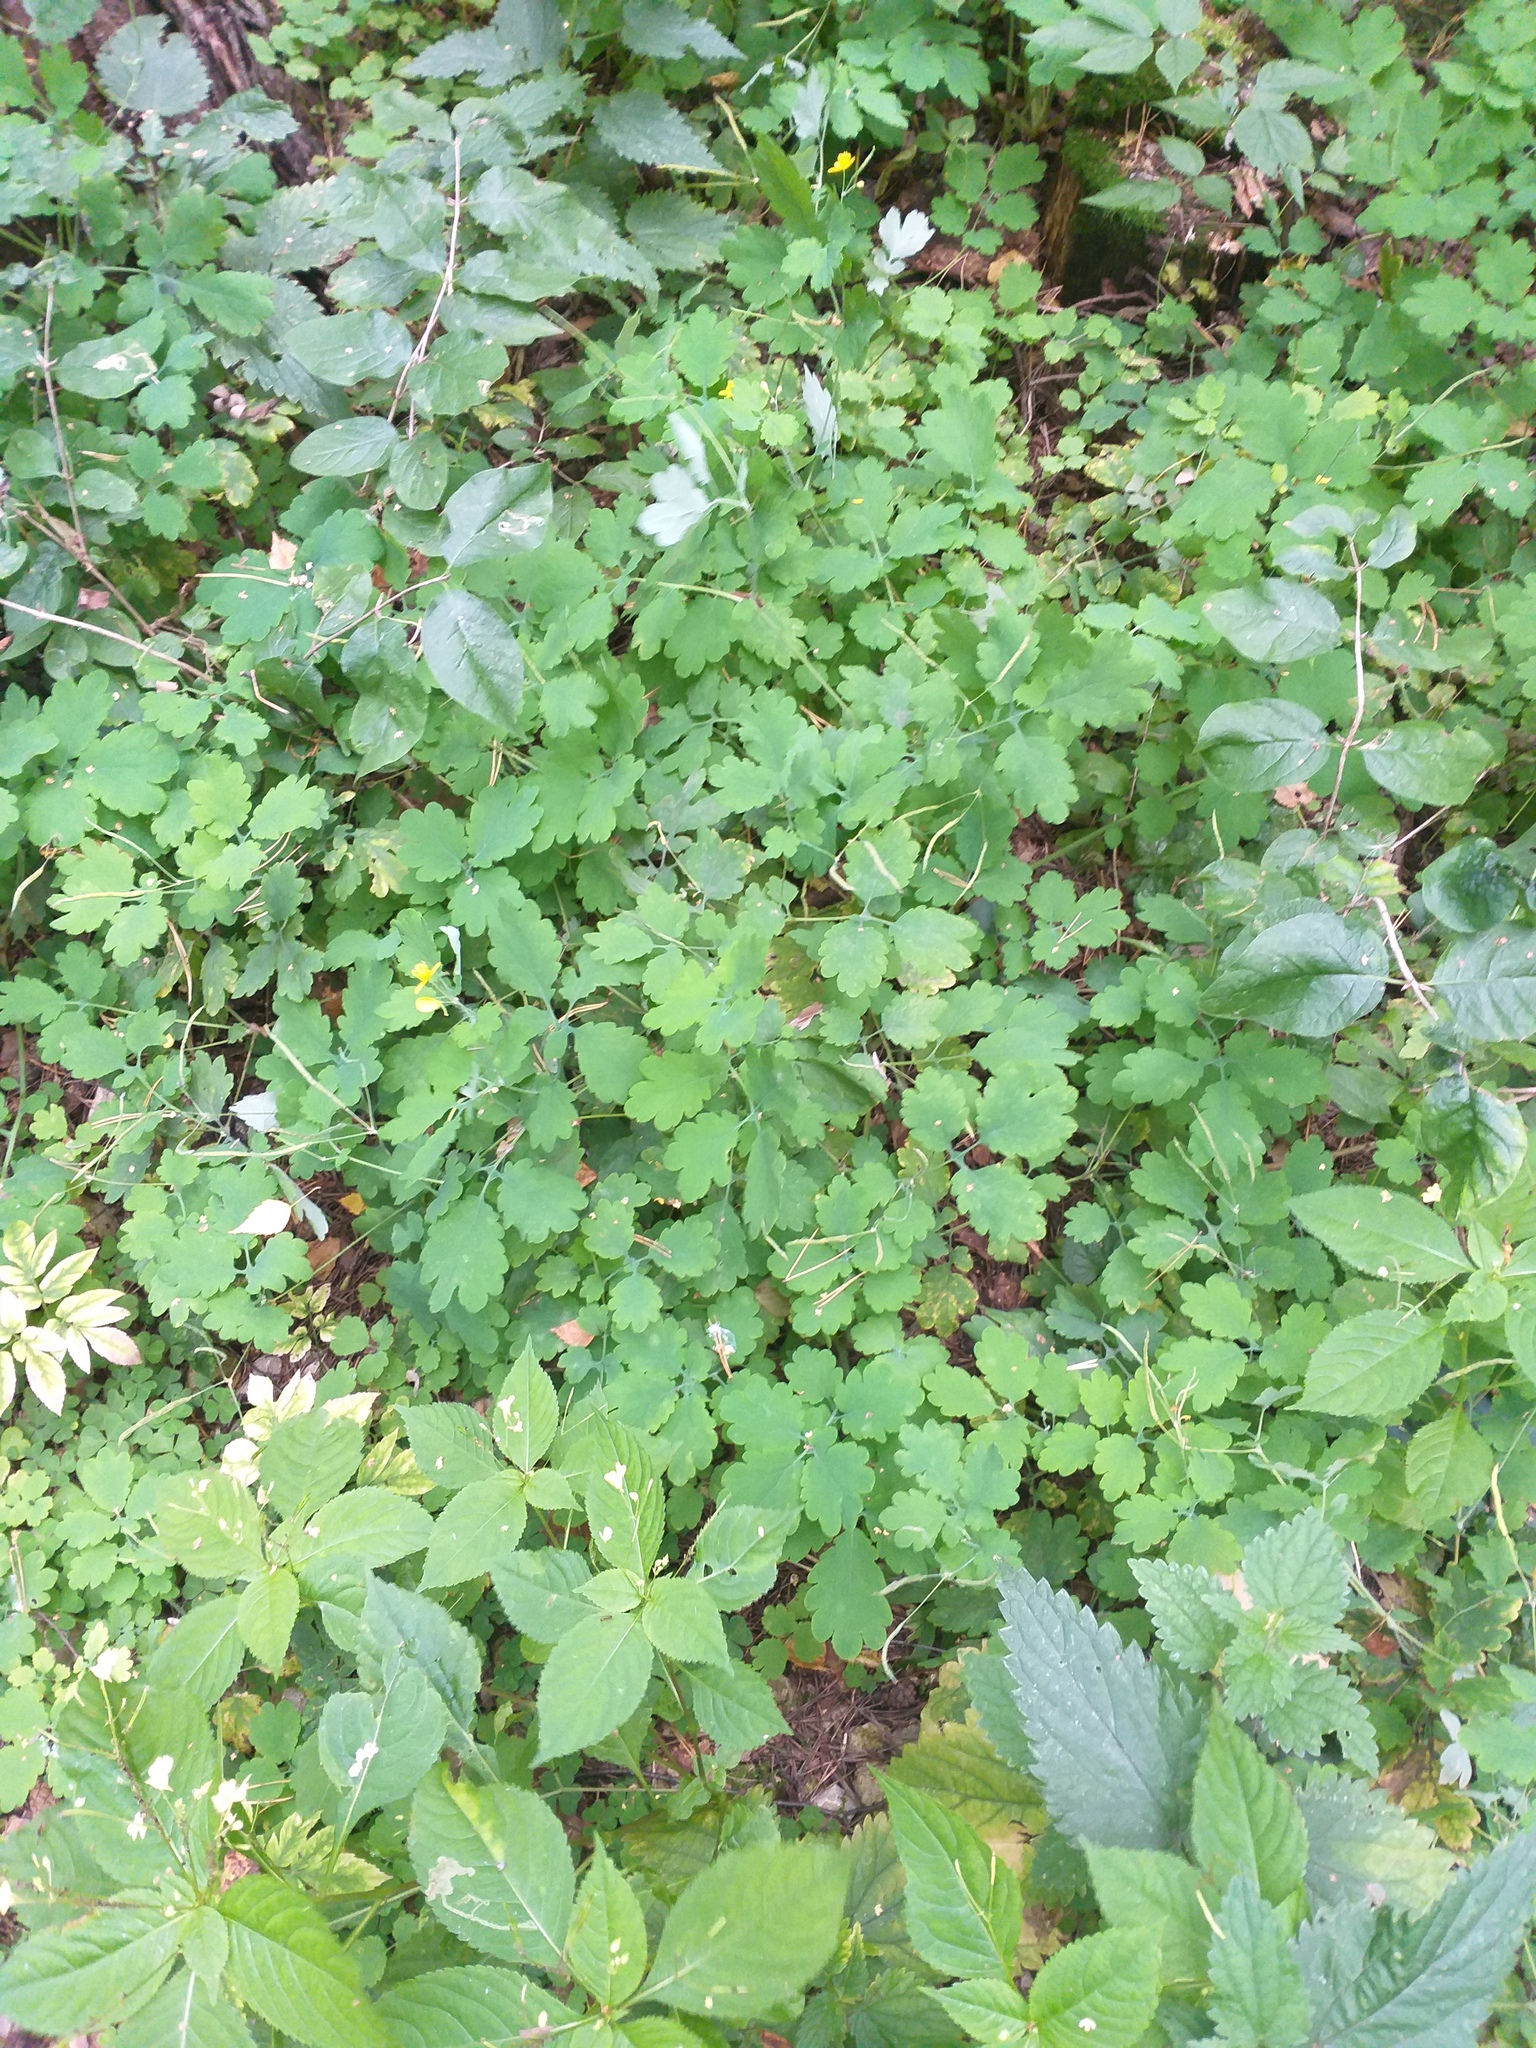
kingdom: Plantae
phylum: Tracheophyta
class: Magnoliopsida
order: Ranunculales
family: Papaveraceae
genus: Chelidonium
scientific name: Chelidonium majus
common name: Greater celandine
